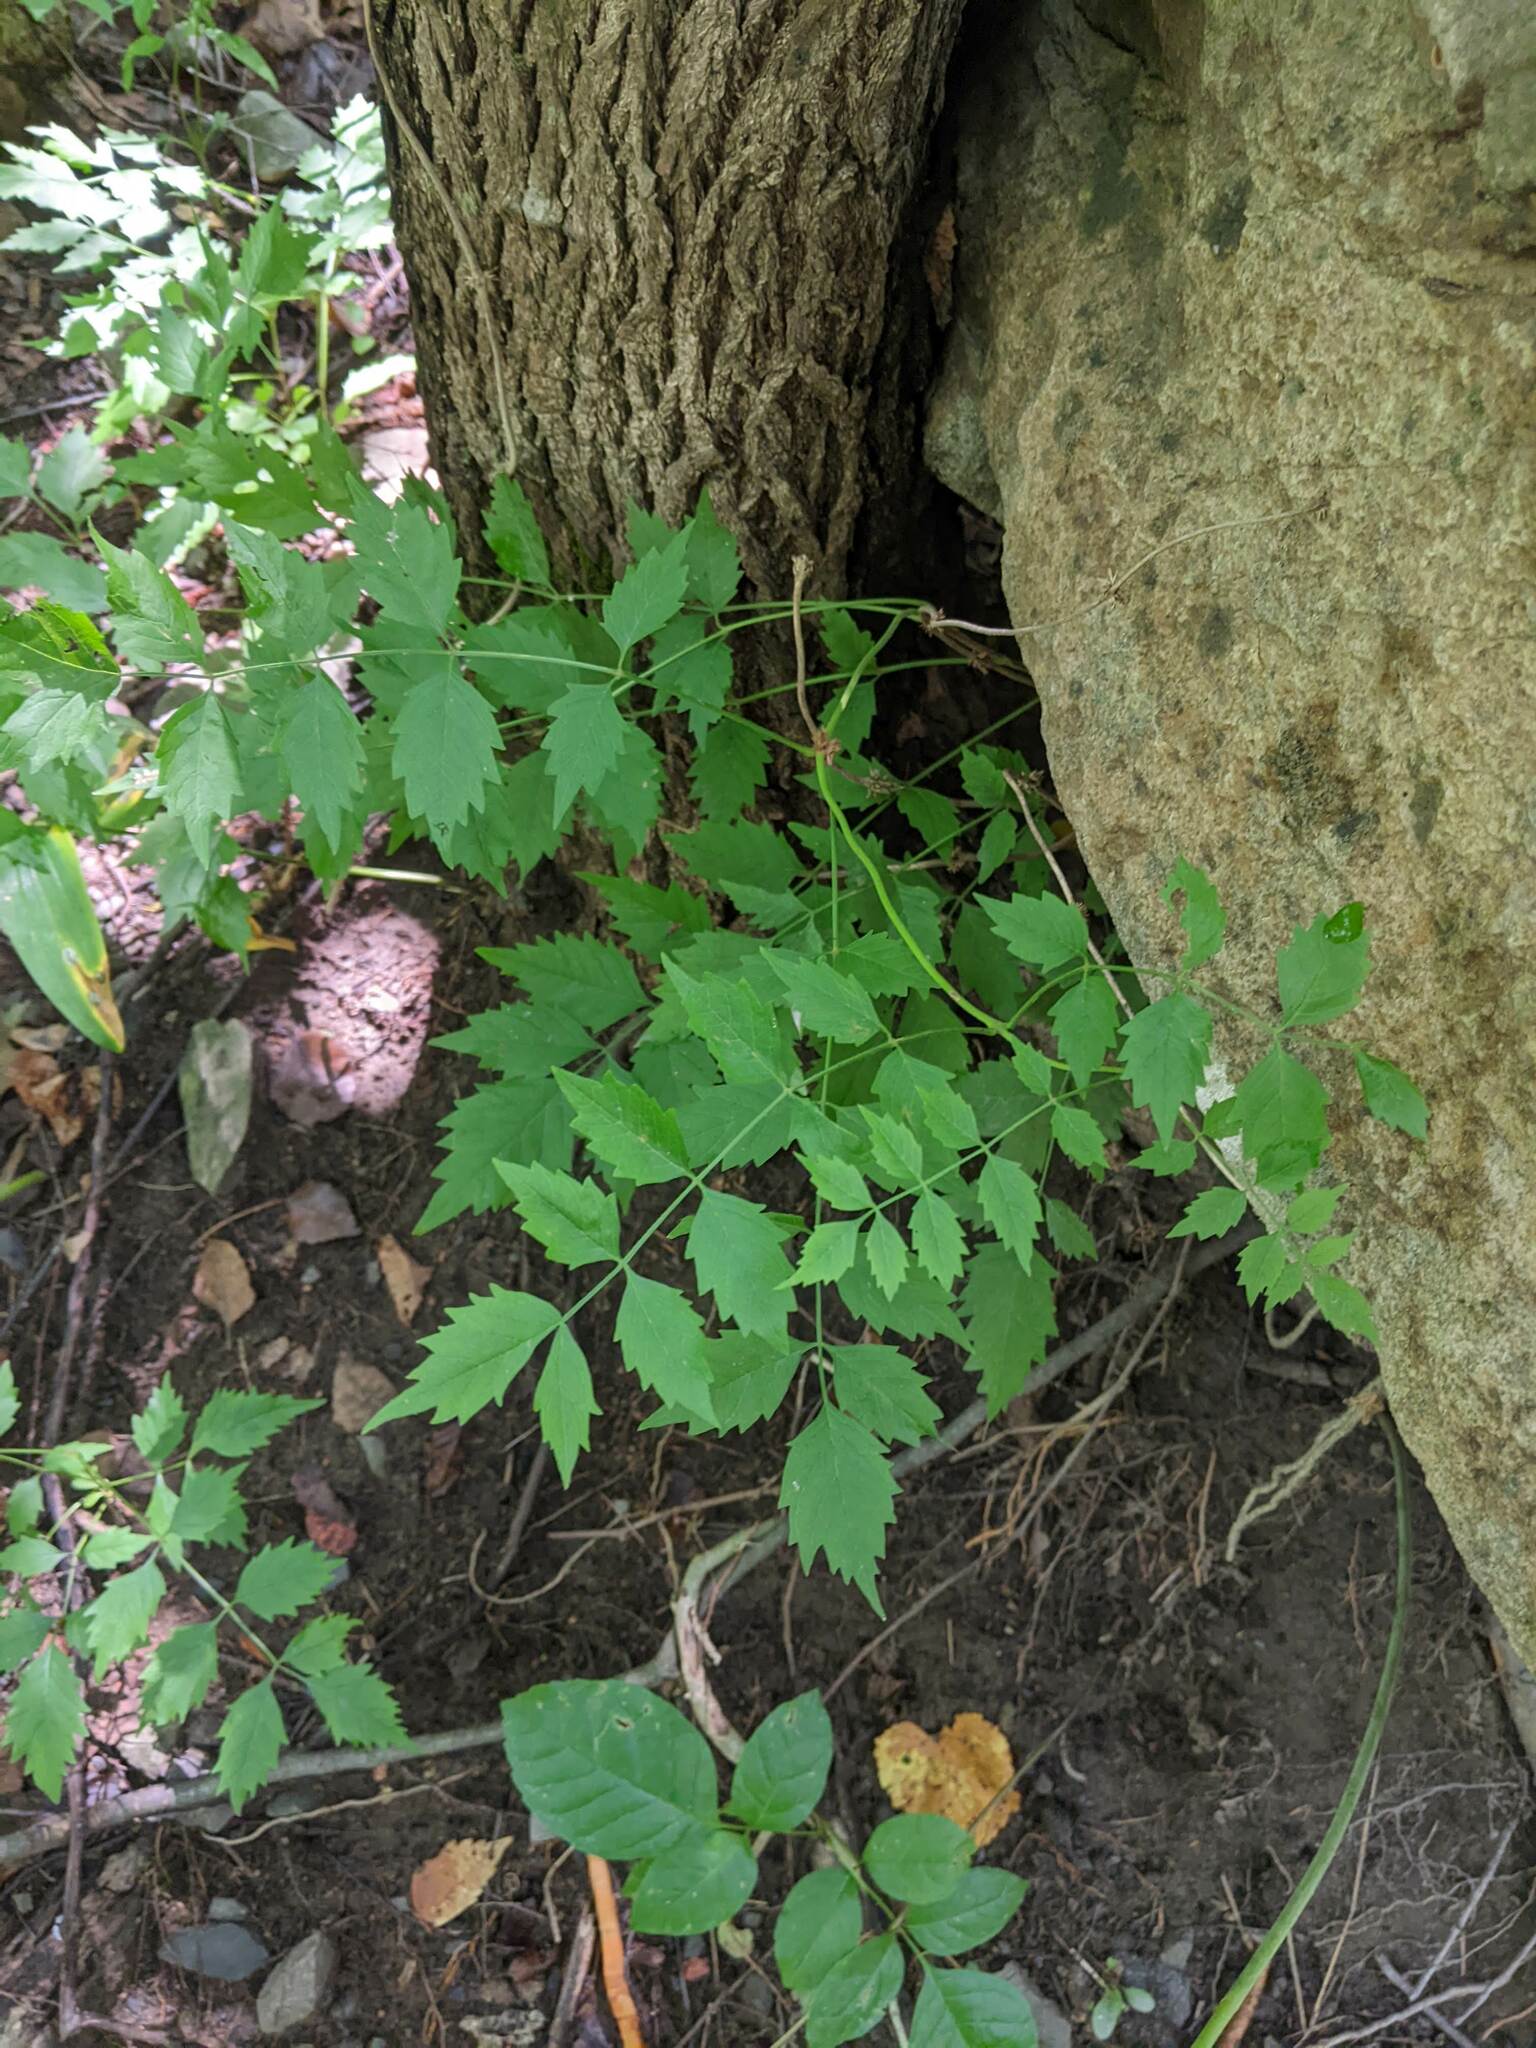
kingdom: Plantae
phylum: Tracheophyta
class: Magnoliopsida
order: Lamiales
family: Bignoniaceae
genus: Campsis
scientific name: Campsis radicans
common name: Trumpet-creeper
